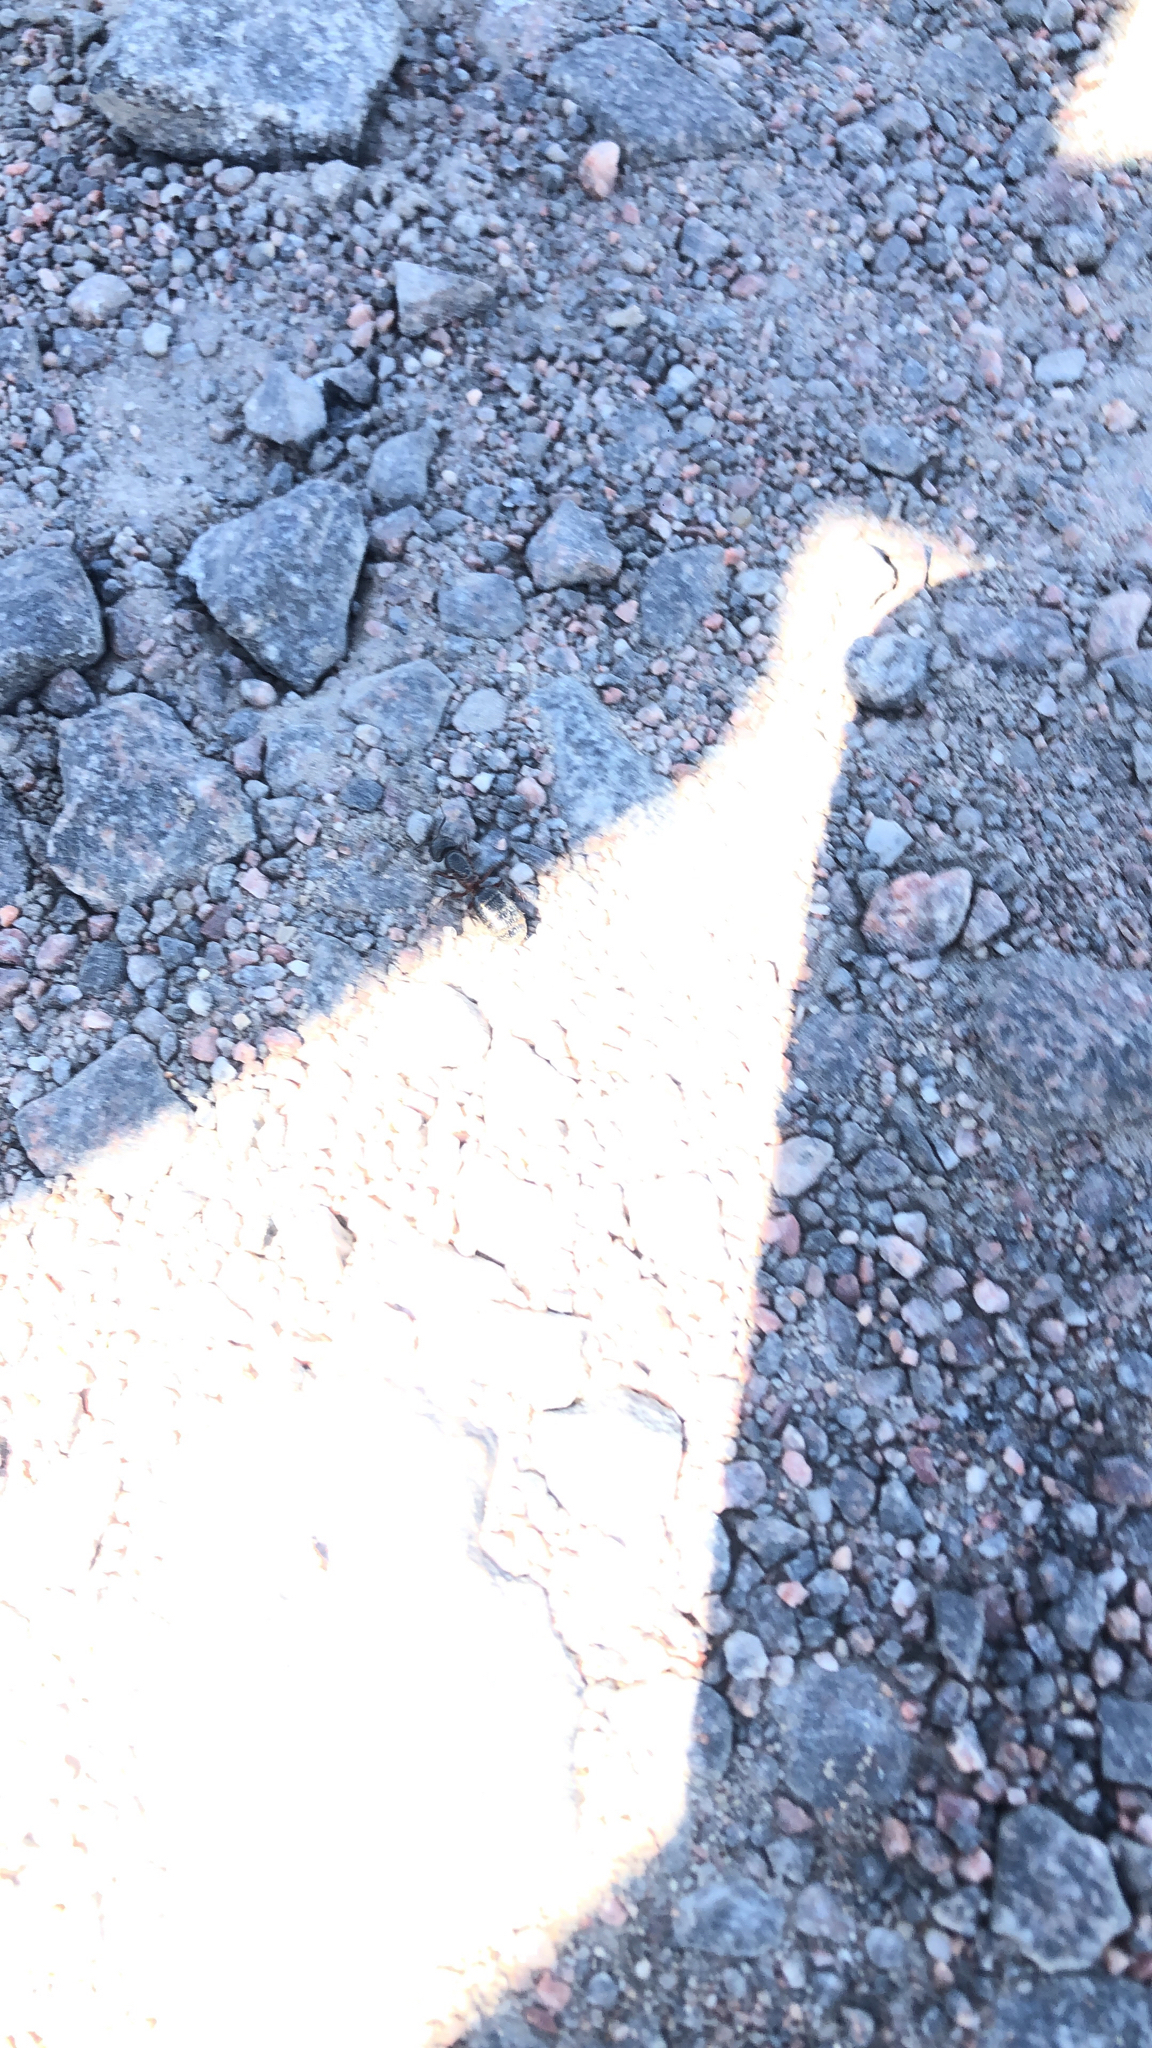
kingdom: Animalia
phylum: Arthropoda
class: Insecta
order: Hymenoptera
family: Formicidae
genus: Camponotus
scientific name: Camponotus herculeanus
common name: Hercules ant
